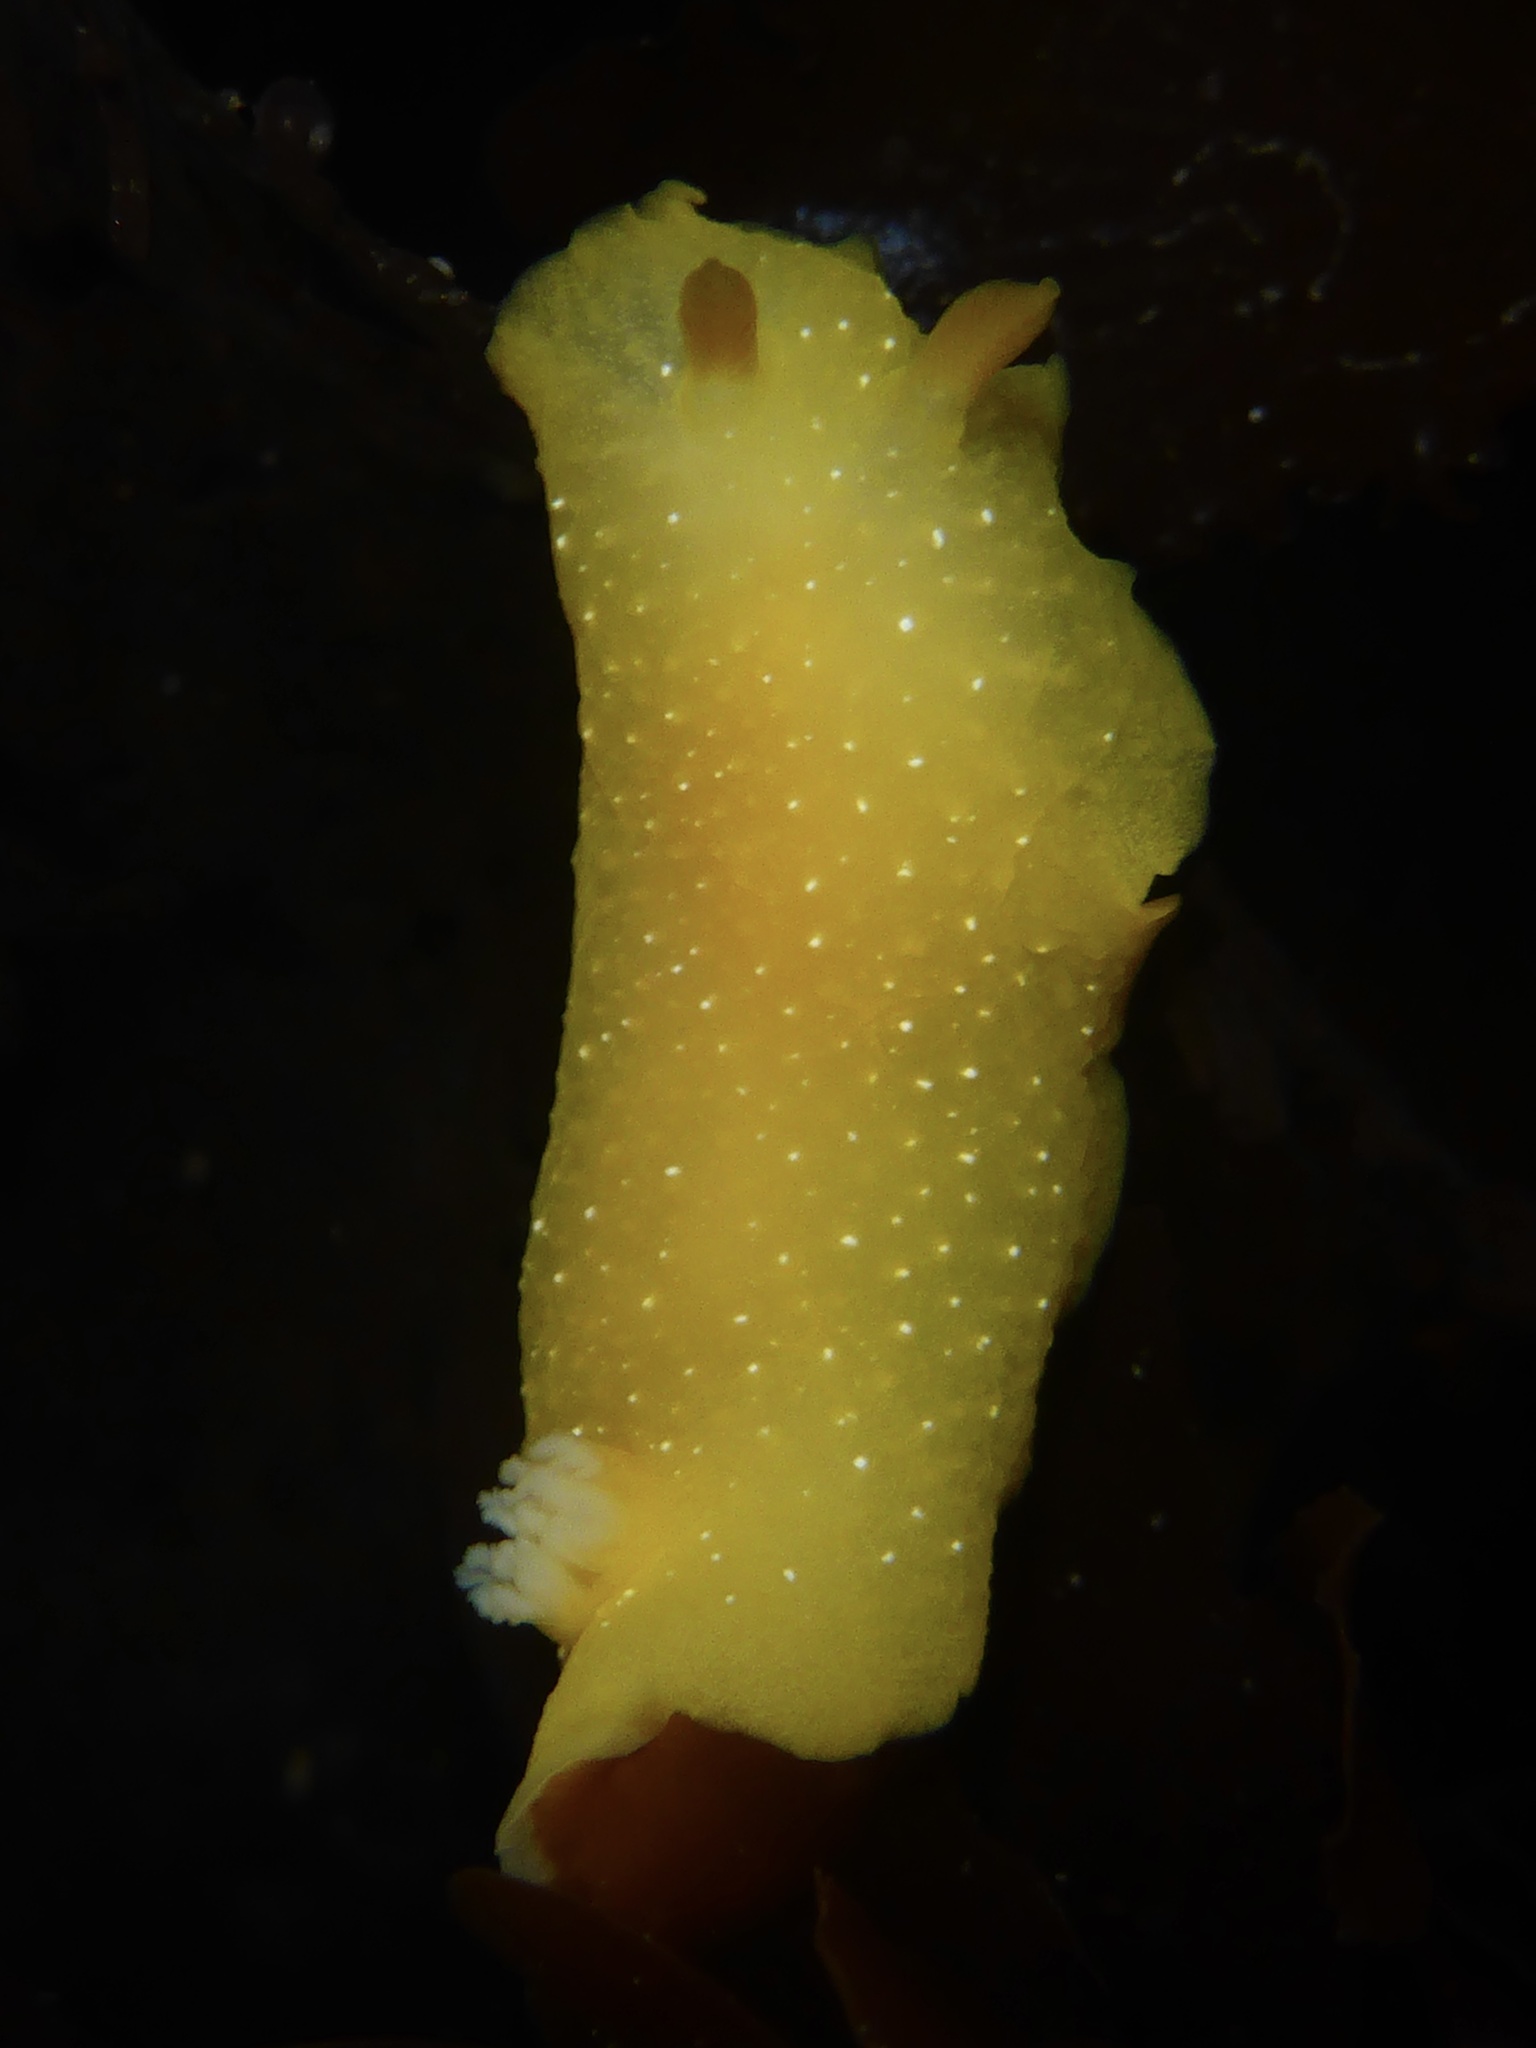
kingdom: Animalia
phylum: Mollusca
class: Gastropoda
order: Nudibranchia
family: Dendrodorididae
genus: Doriopsilla
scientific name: Doriopsilla fulva
